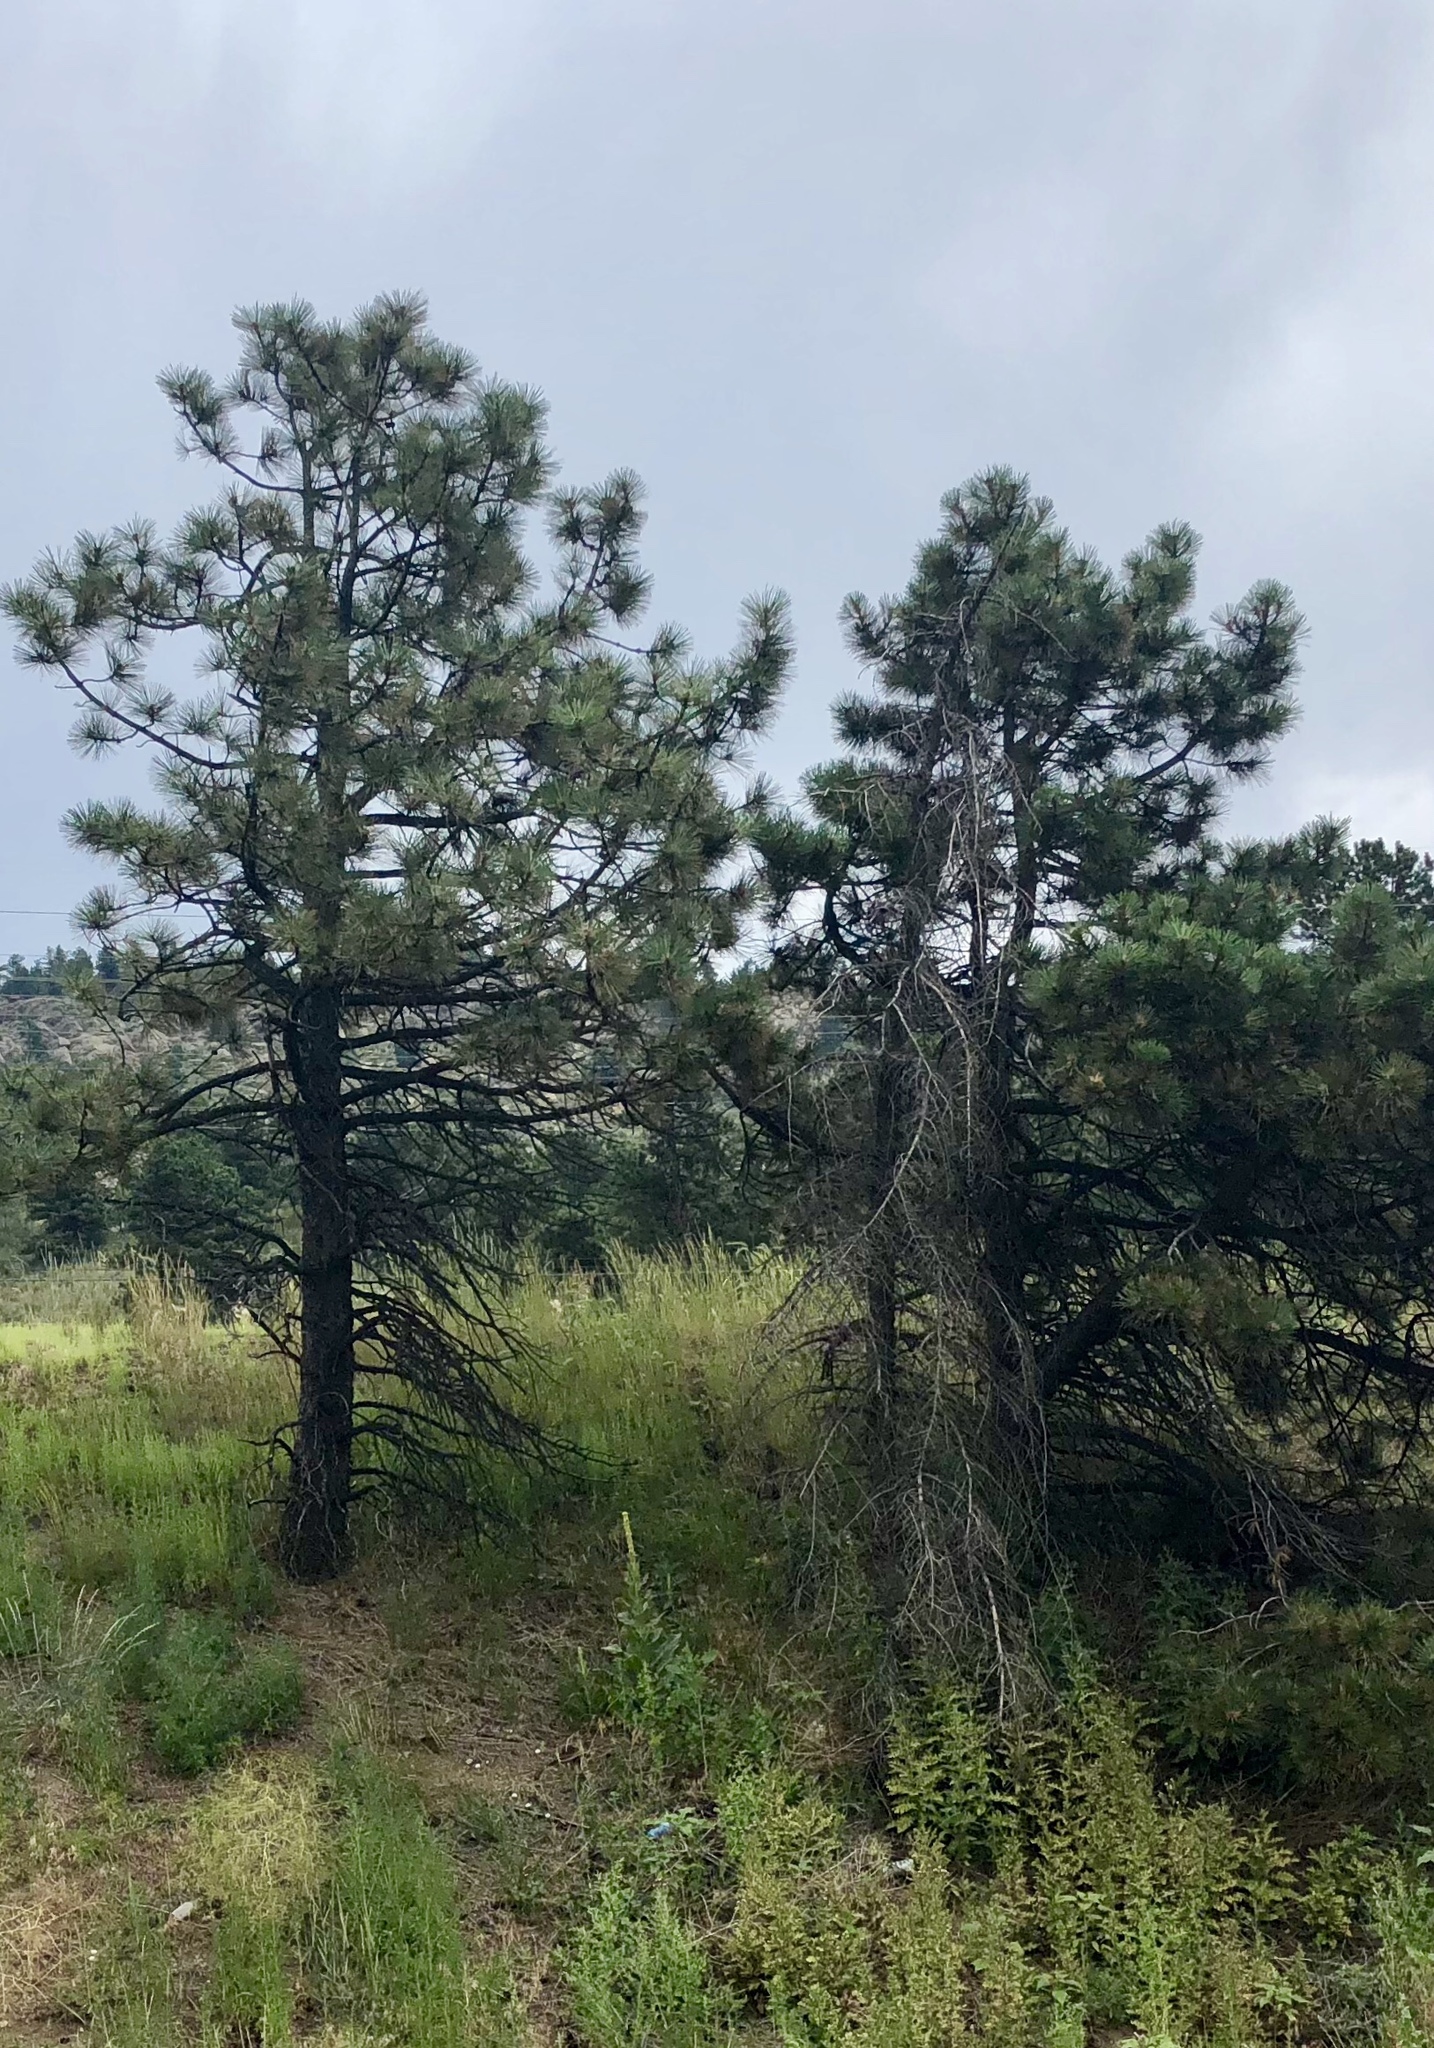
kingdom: Plantae
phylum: Tracheophyta
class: Pinopsida
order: Pinales
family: Pinaceae
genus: Pinus
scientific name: Pinus ponderosa
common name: Western yellow-pine
